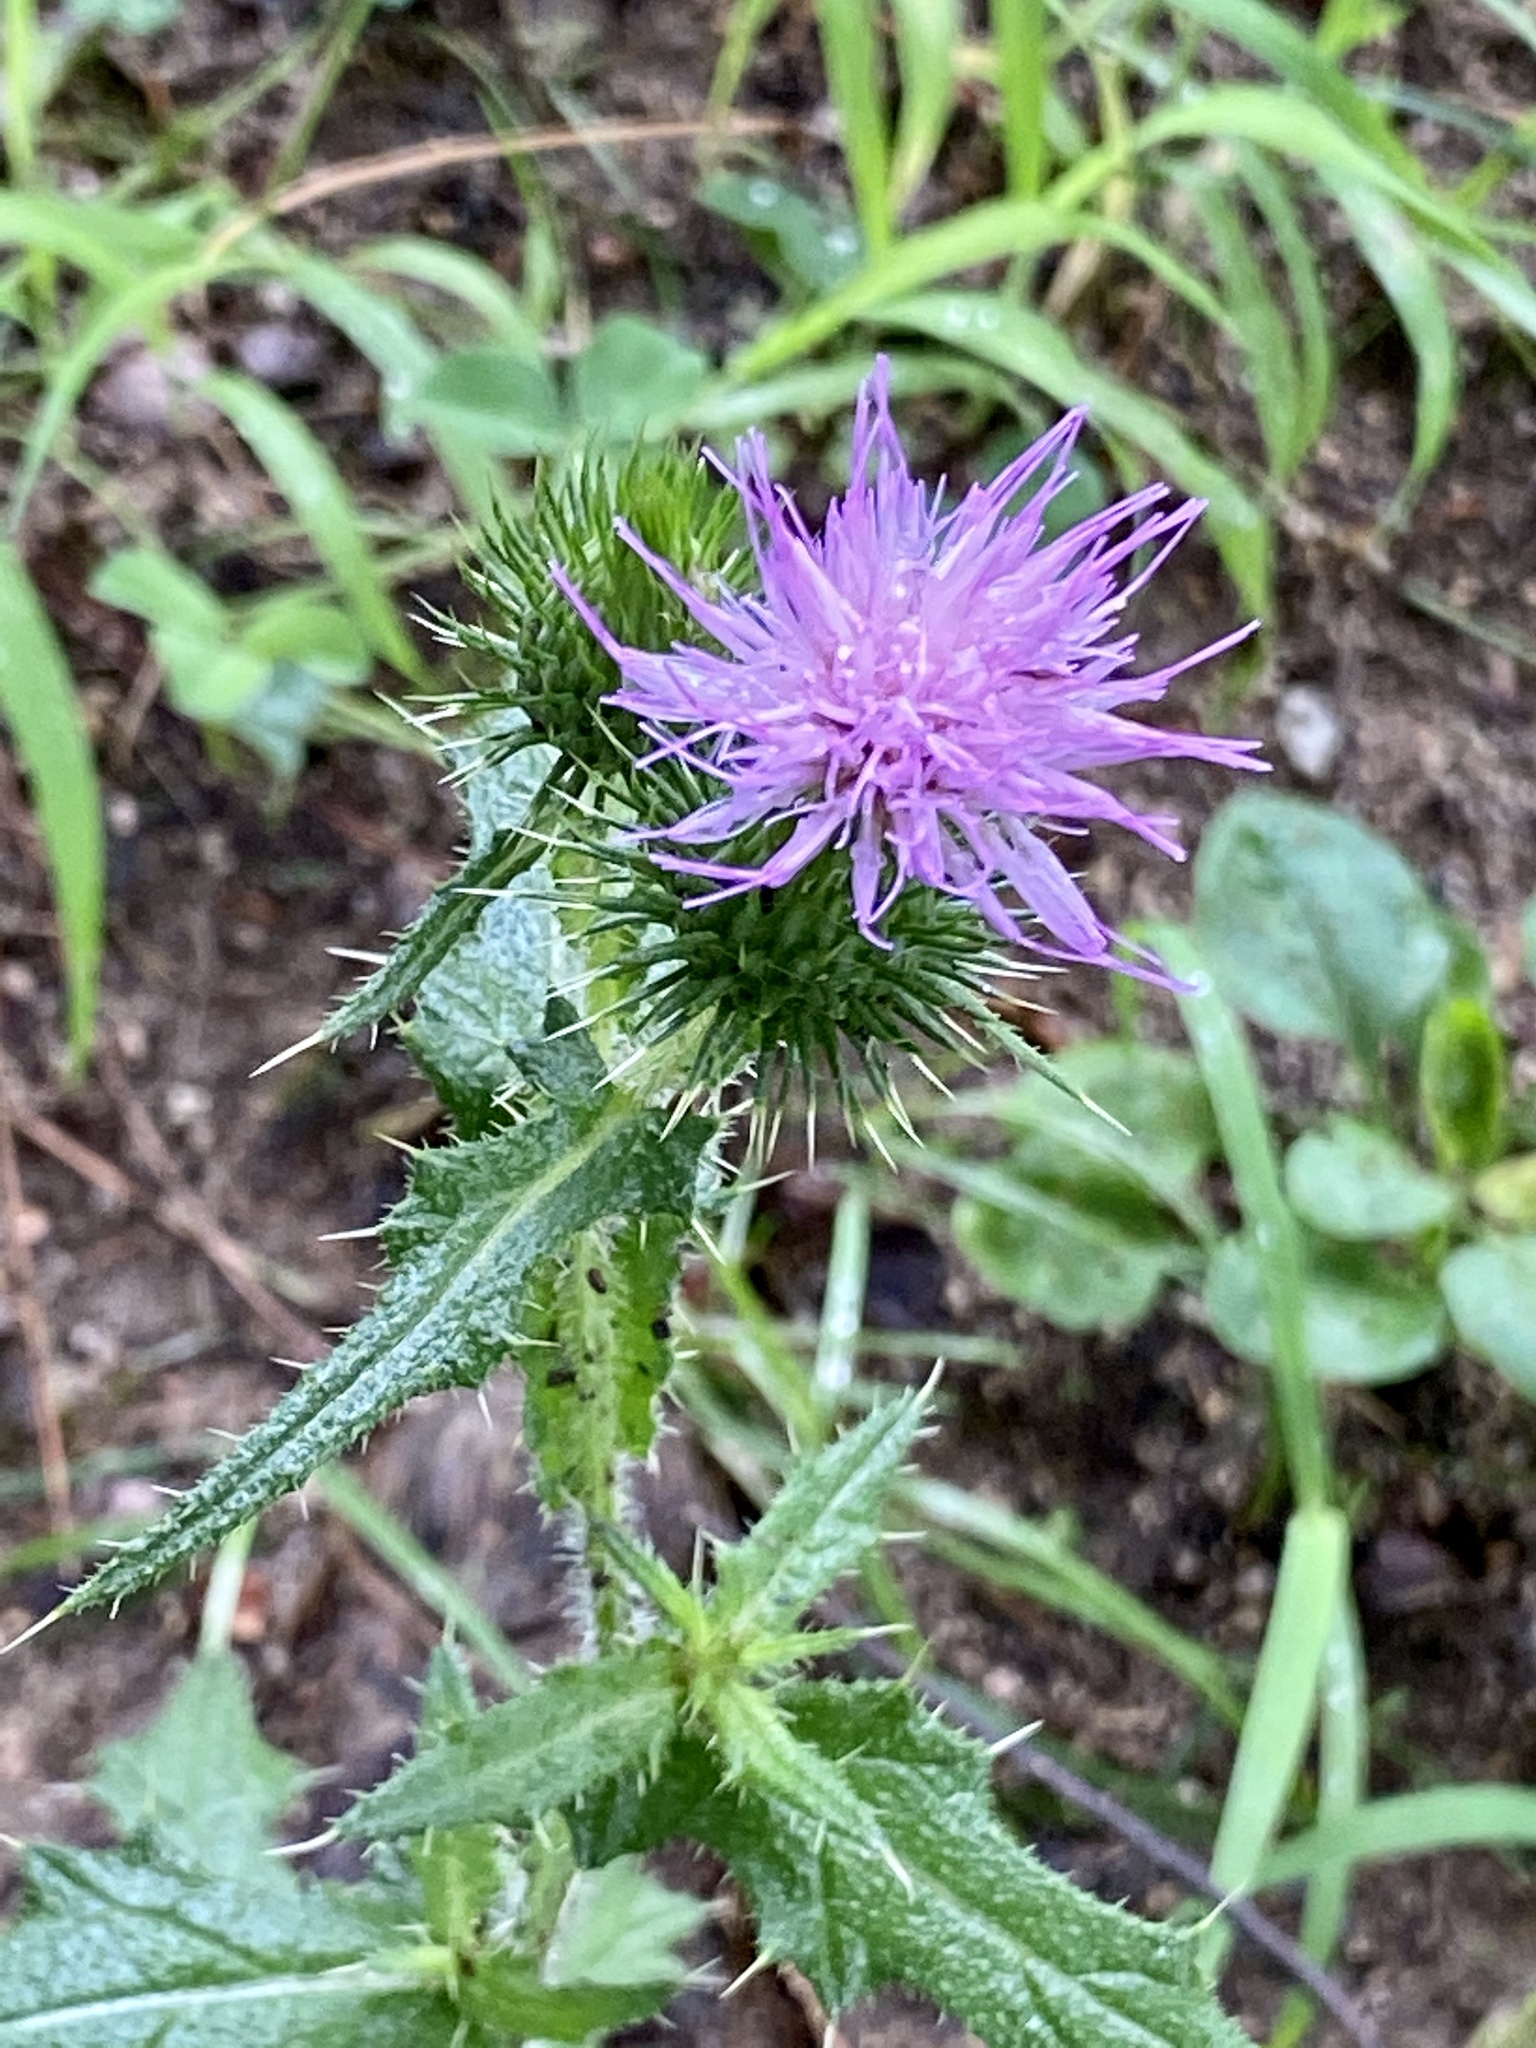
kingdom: Plantae
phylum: Tracheophyta
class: Magnoliopsida
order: Asterales
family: Asteraceae
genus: Cirsium
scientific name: Cirsium vulgare
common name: Bull thistle
